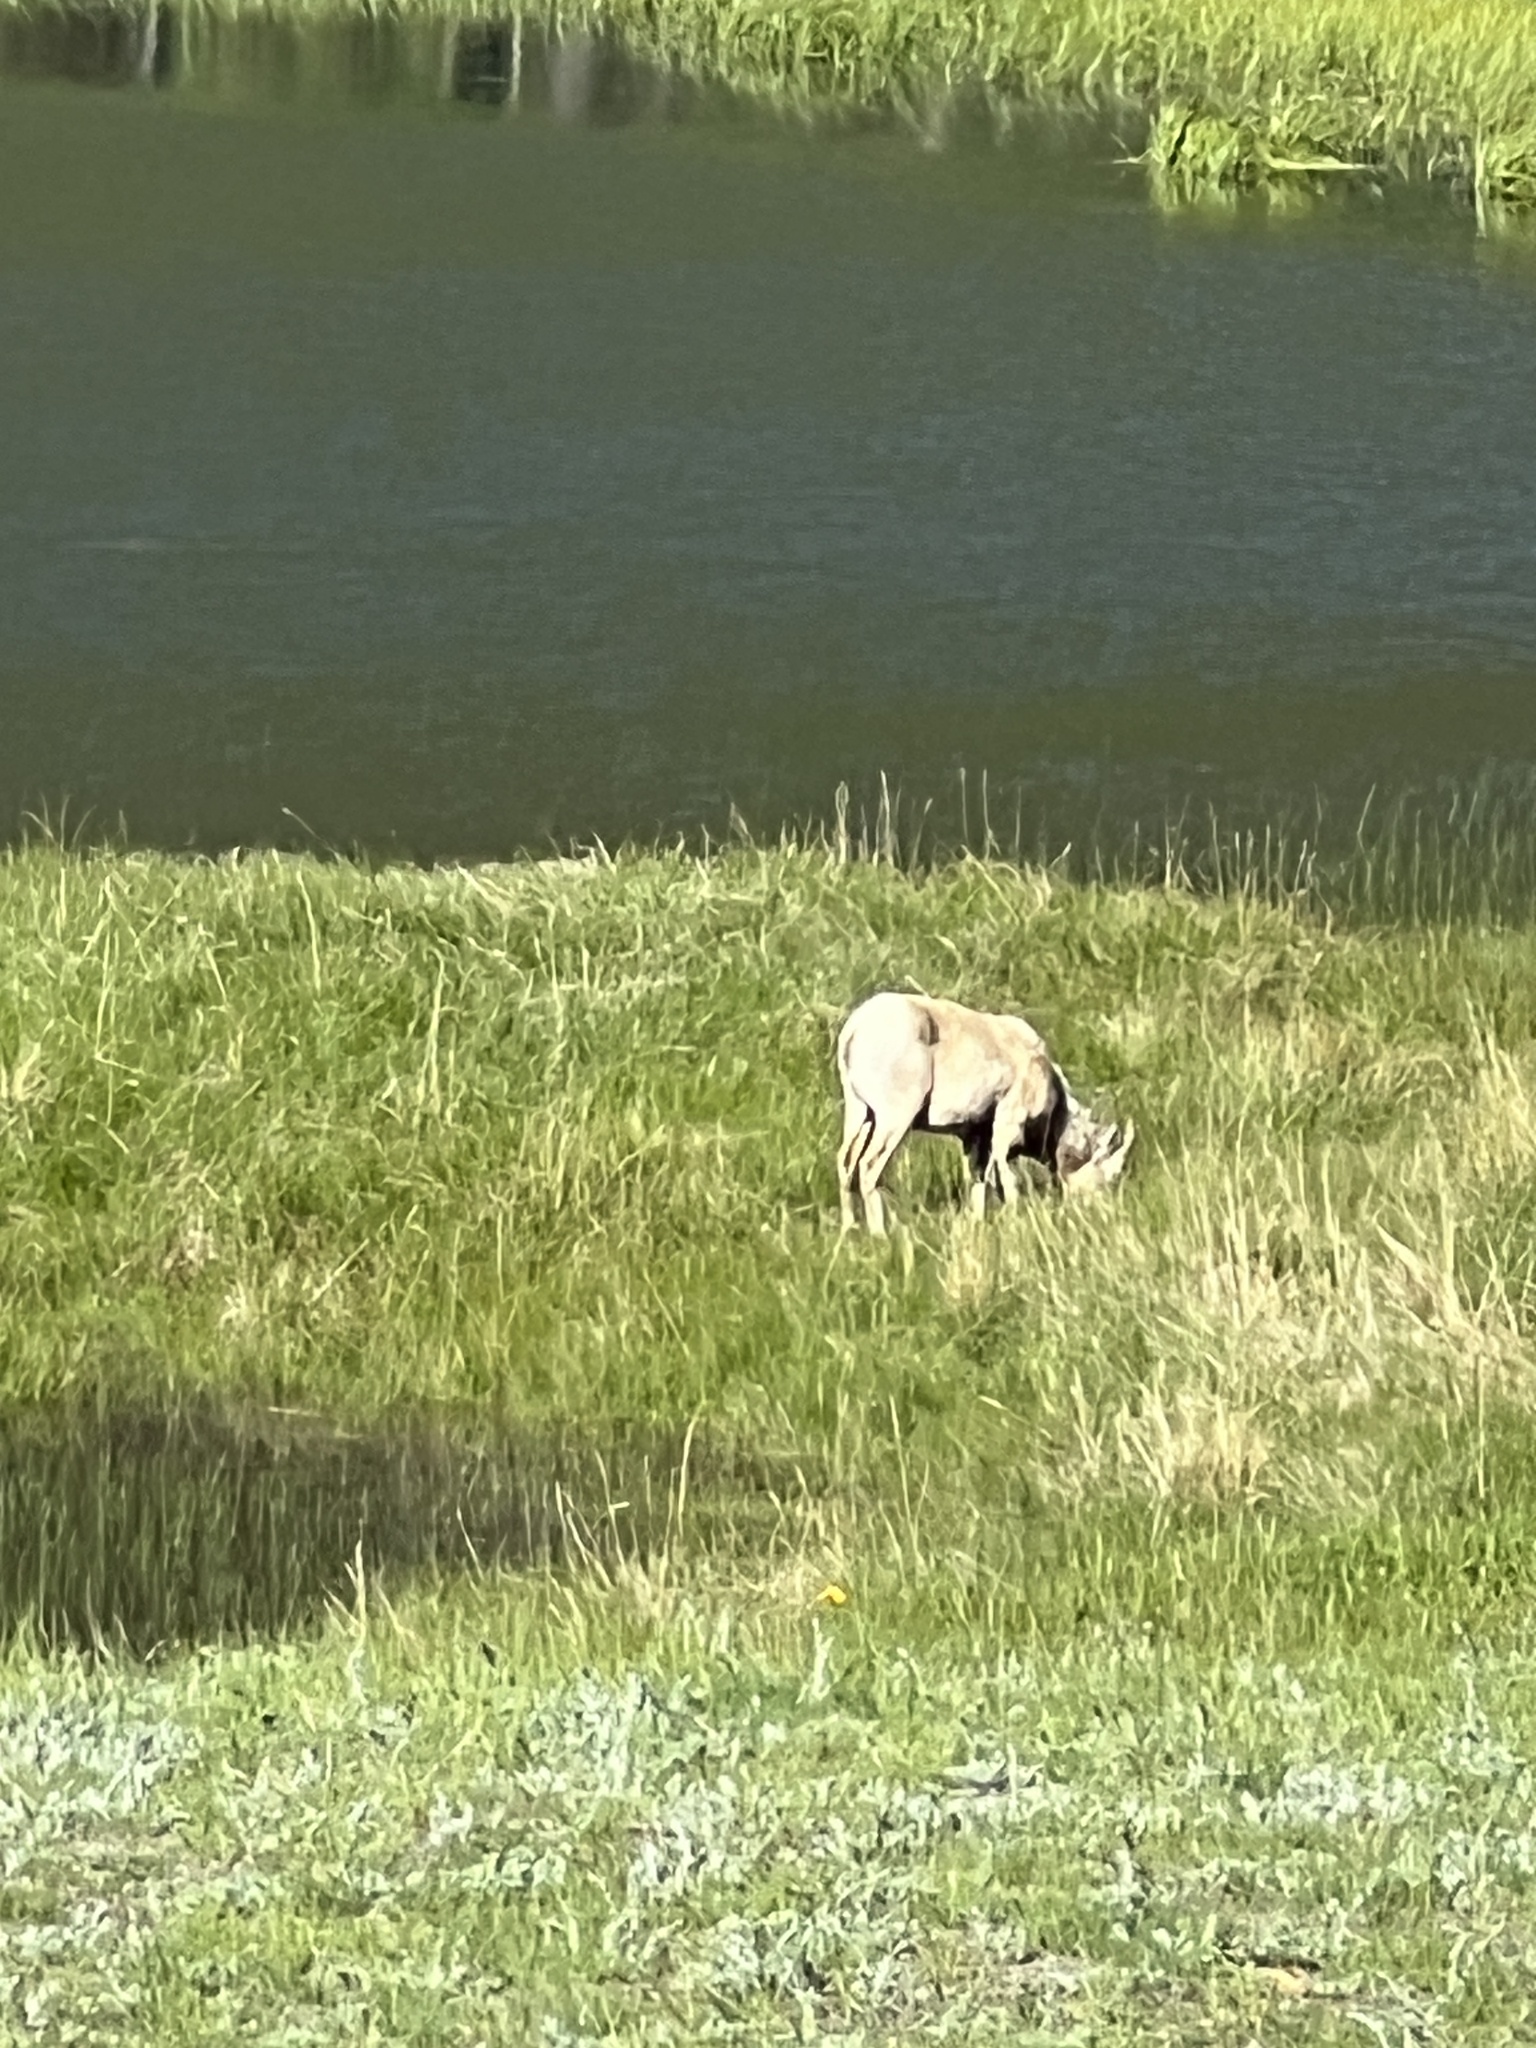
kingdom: Animalia
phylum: Chordata
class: Mammalia
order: Artiodactyla
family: Bovidae
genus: Ovis
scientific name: Ovis canadensis
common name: Bighorn sheep
